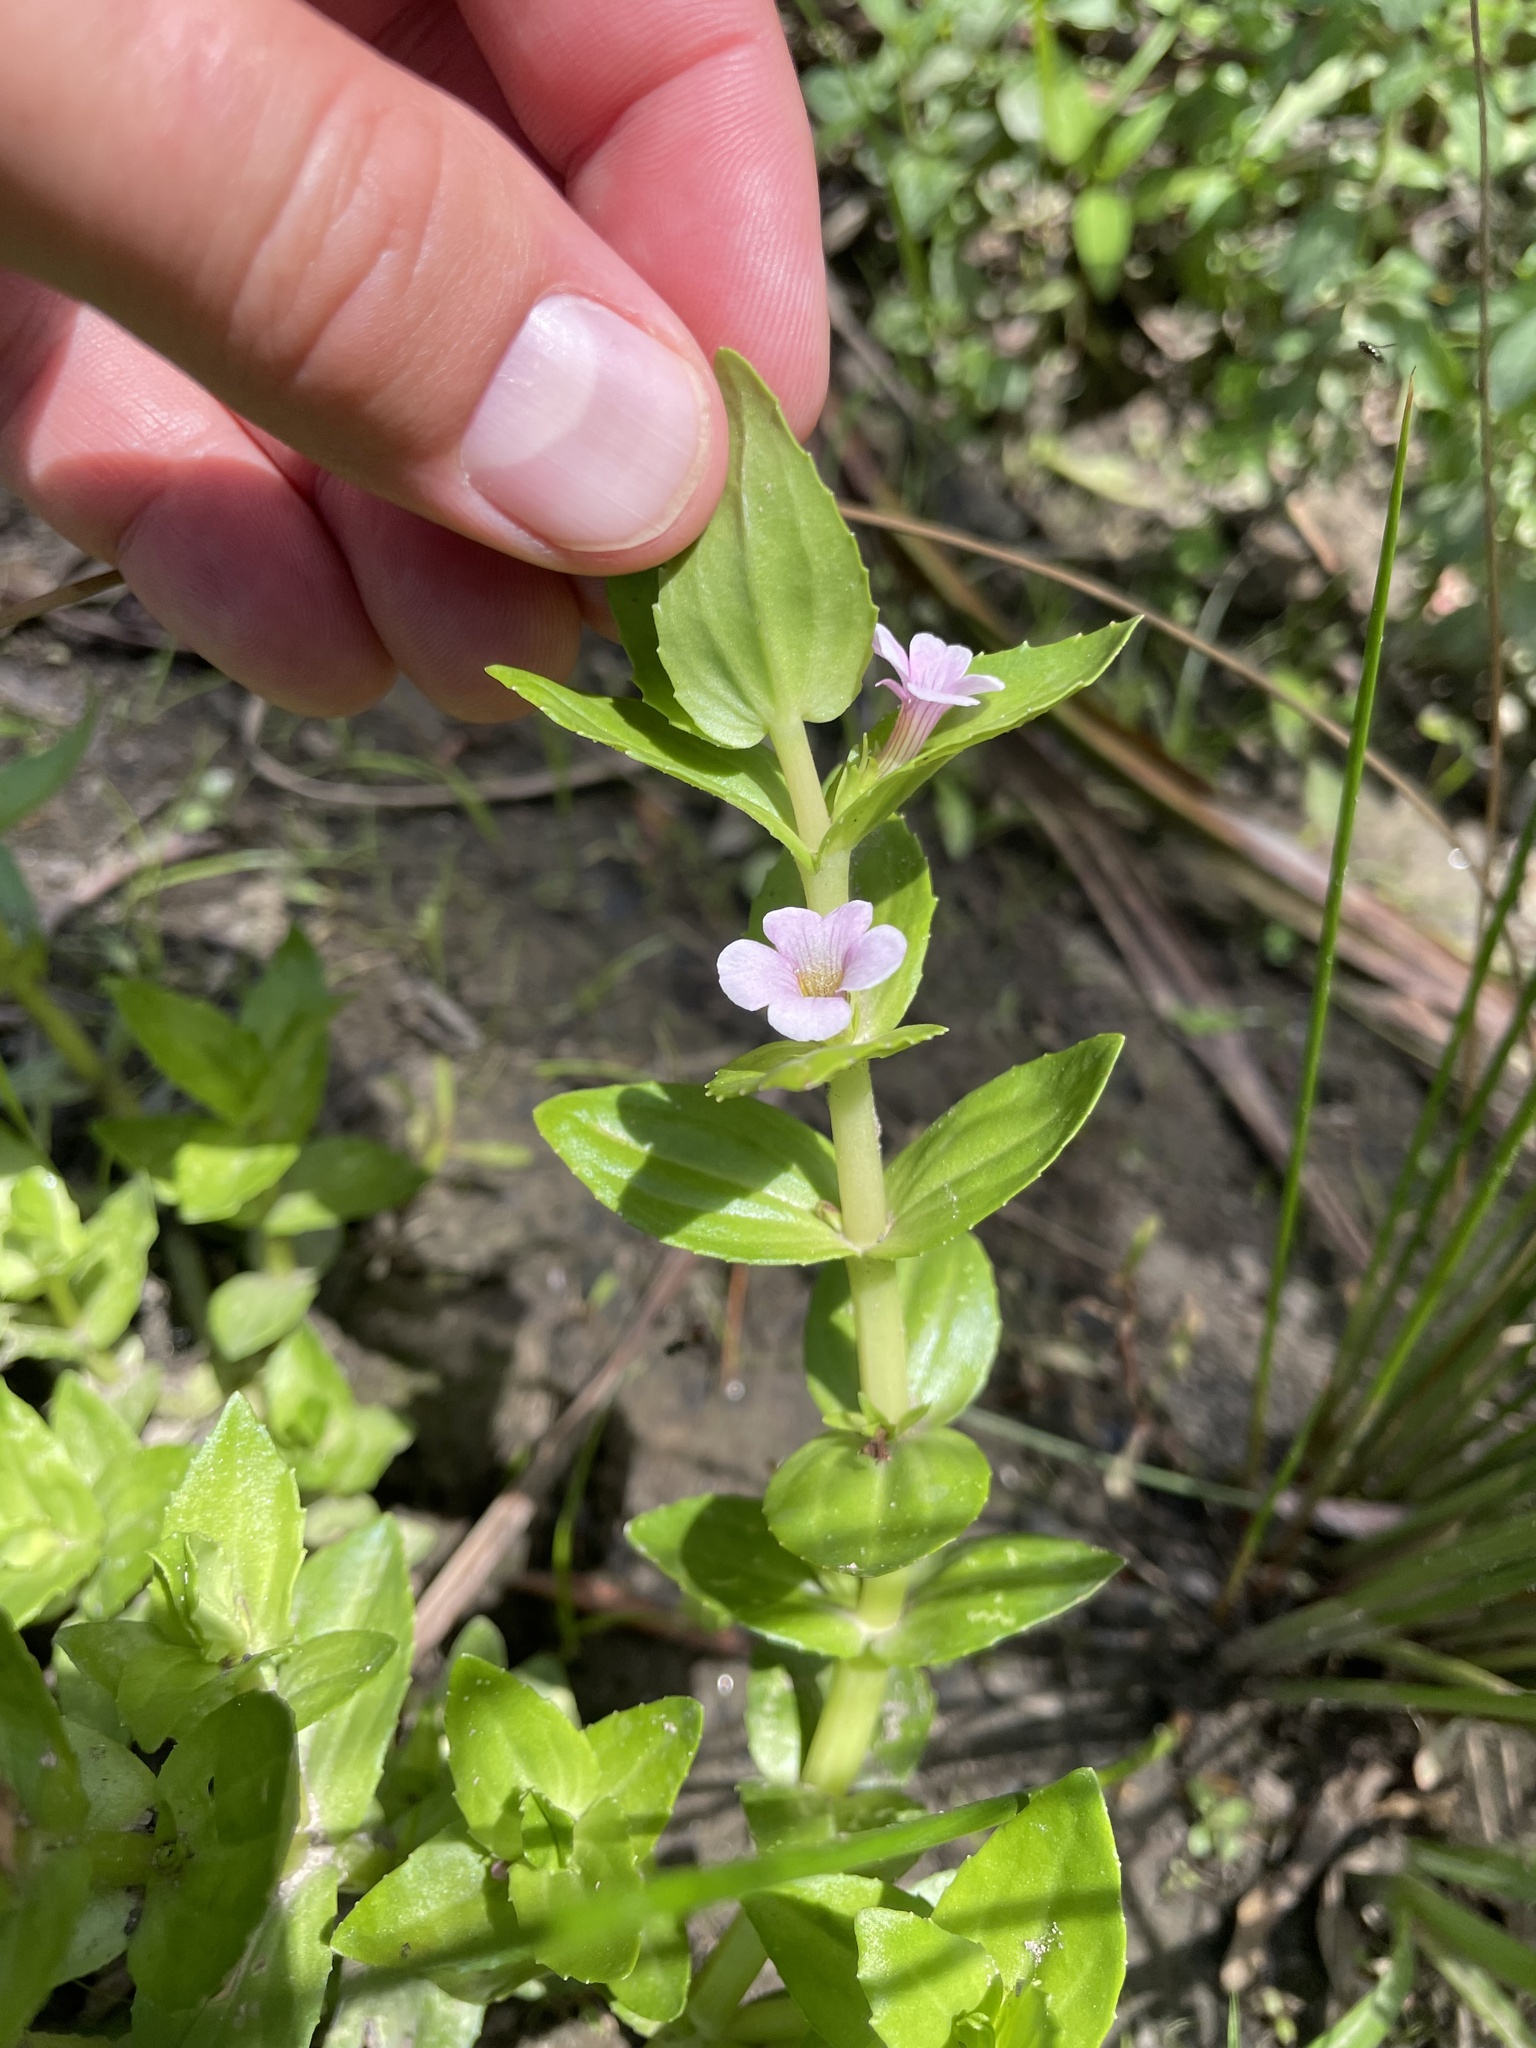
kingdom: Plantae
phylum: Tracheophyta
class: Magnoliopsida
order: Lamiales
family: Plantaginaceae
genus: Gratiola
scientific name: Gratiola peruviana
